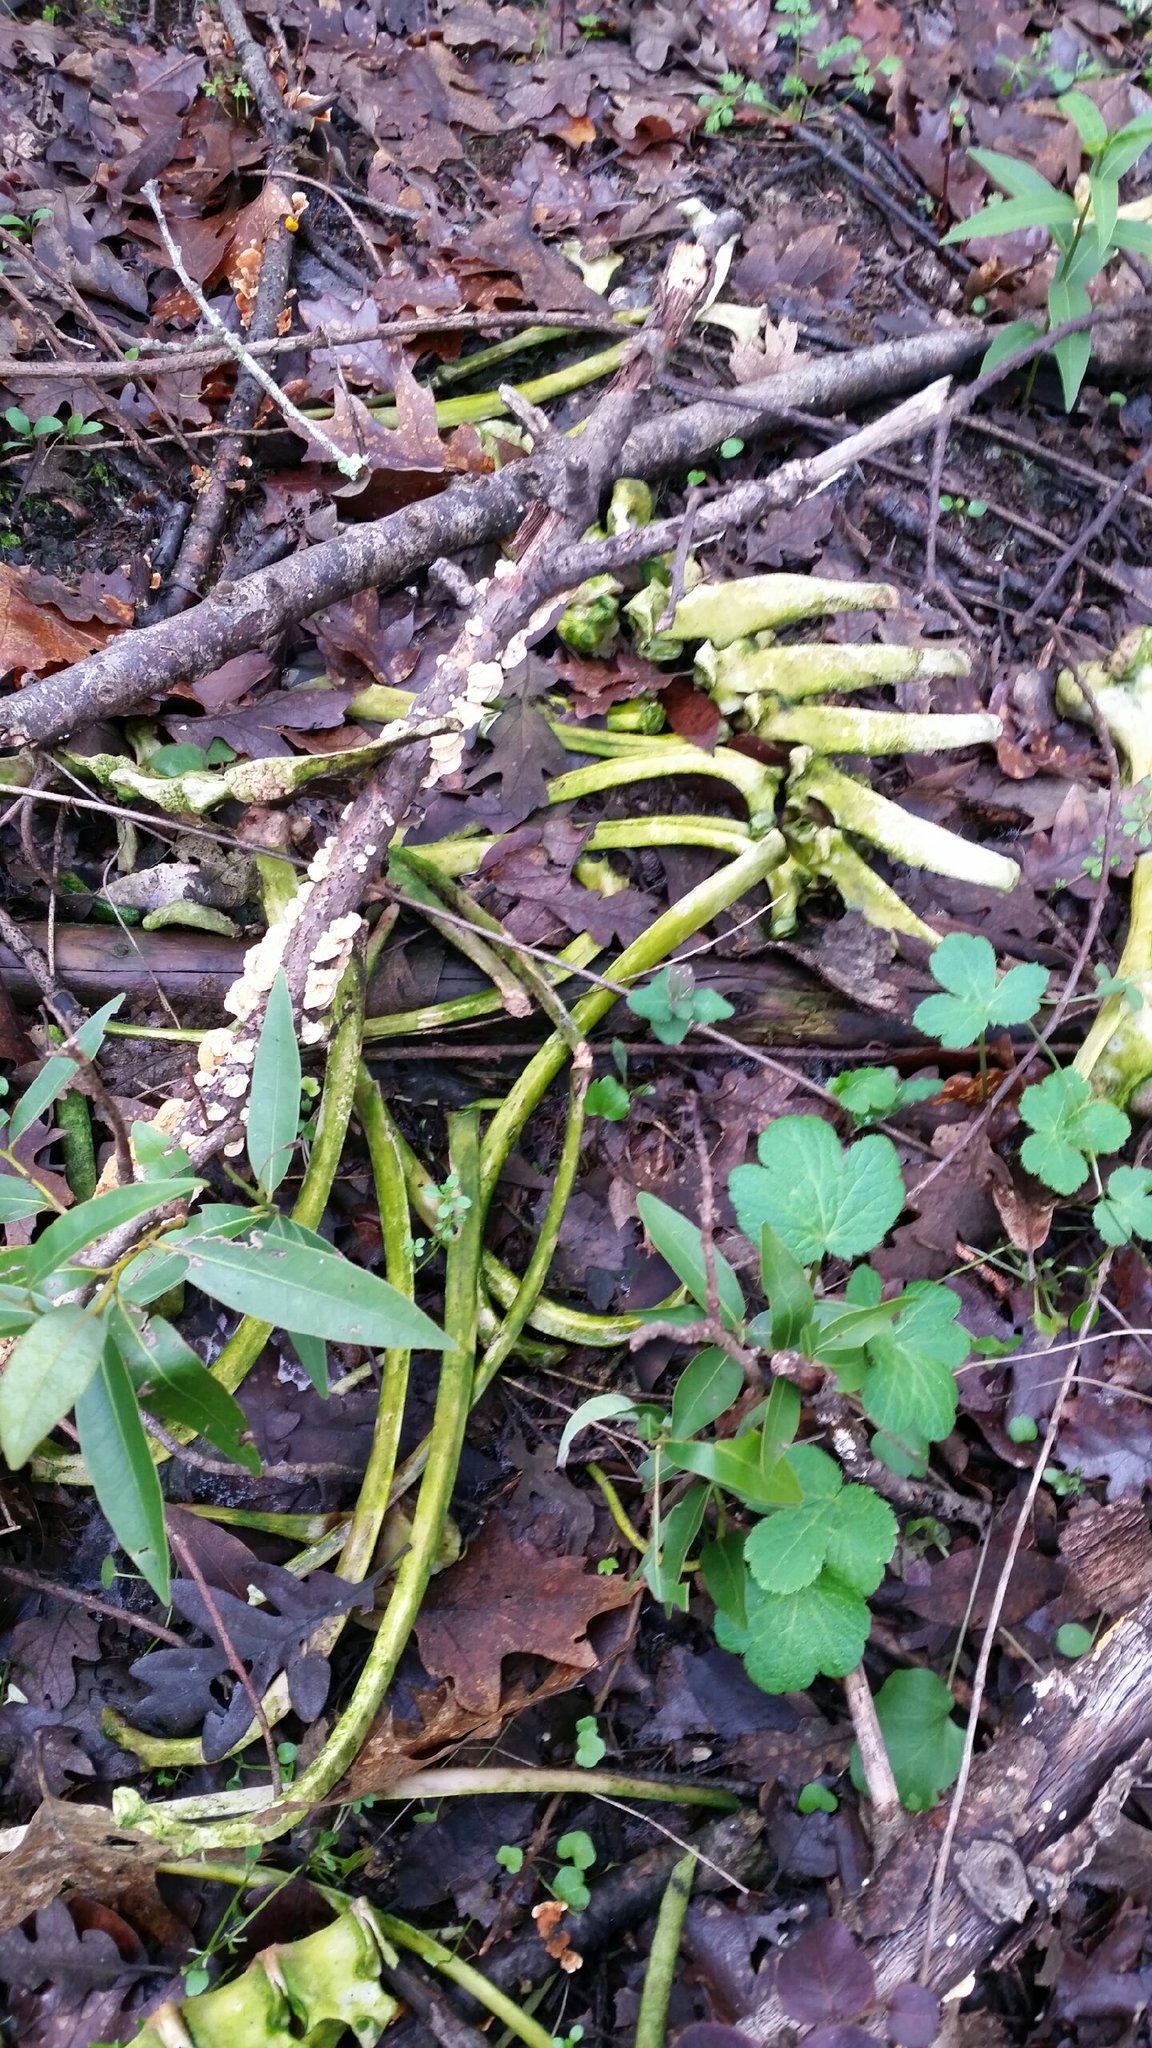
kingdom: Animalia
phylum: Chordata
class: Mammalia
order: Artiodactyla
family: Cervidae
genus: Odocoileus
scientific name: Odocoileus hemionus
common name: Mule deer
